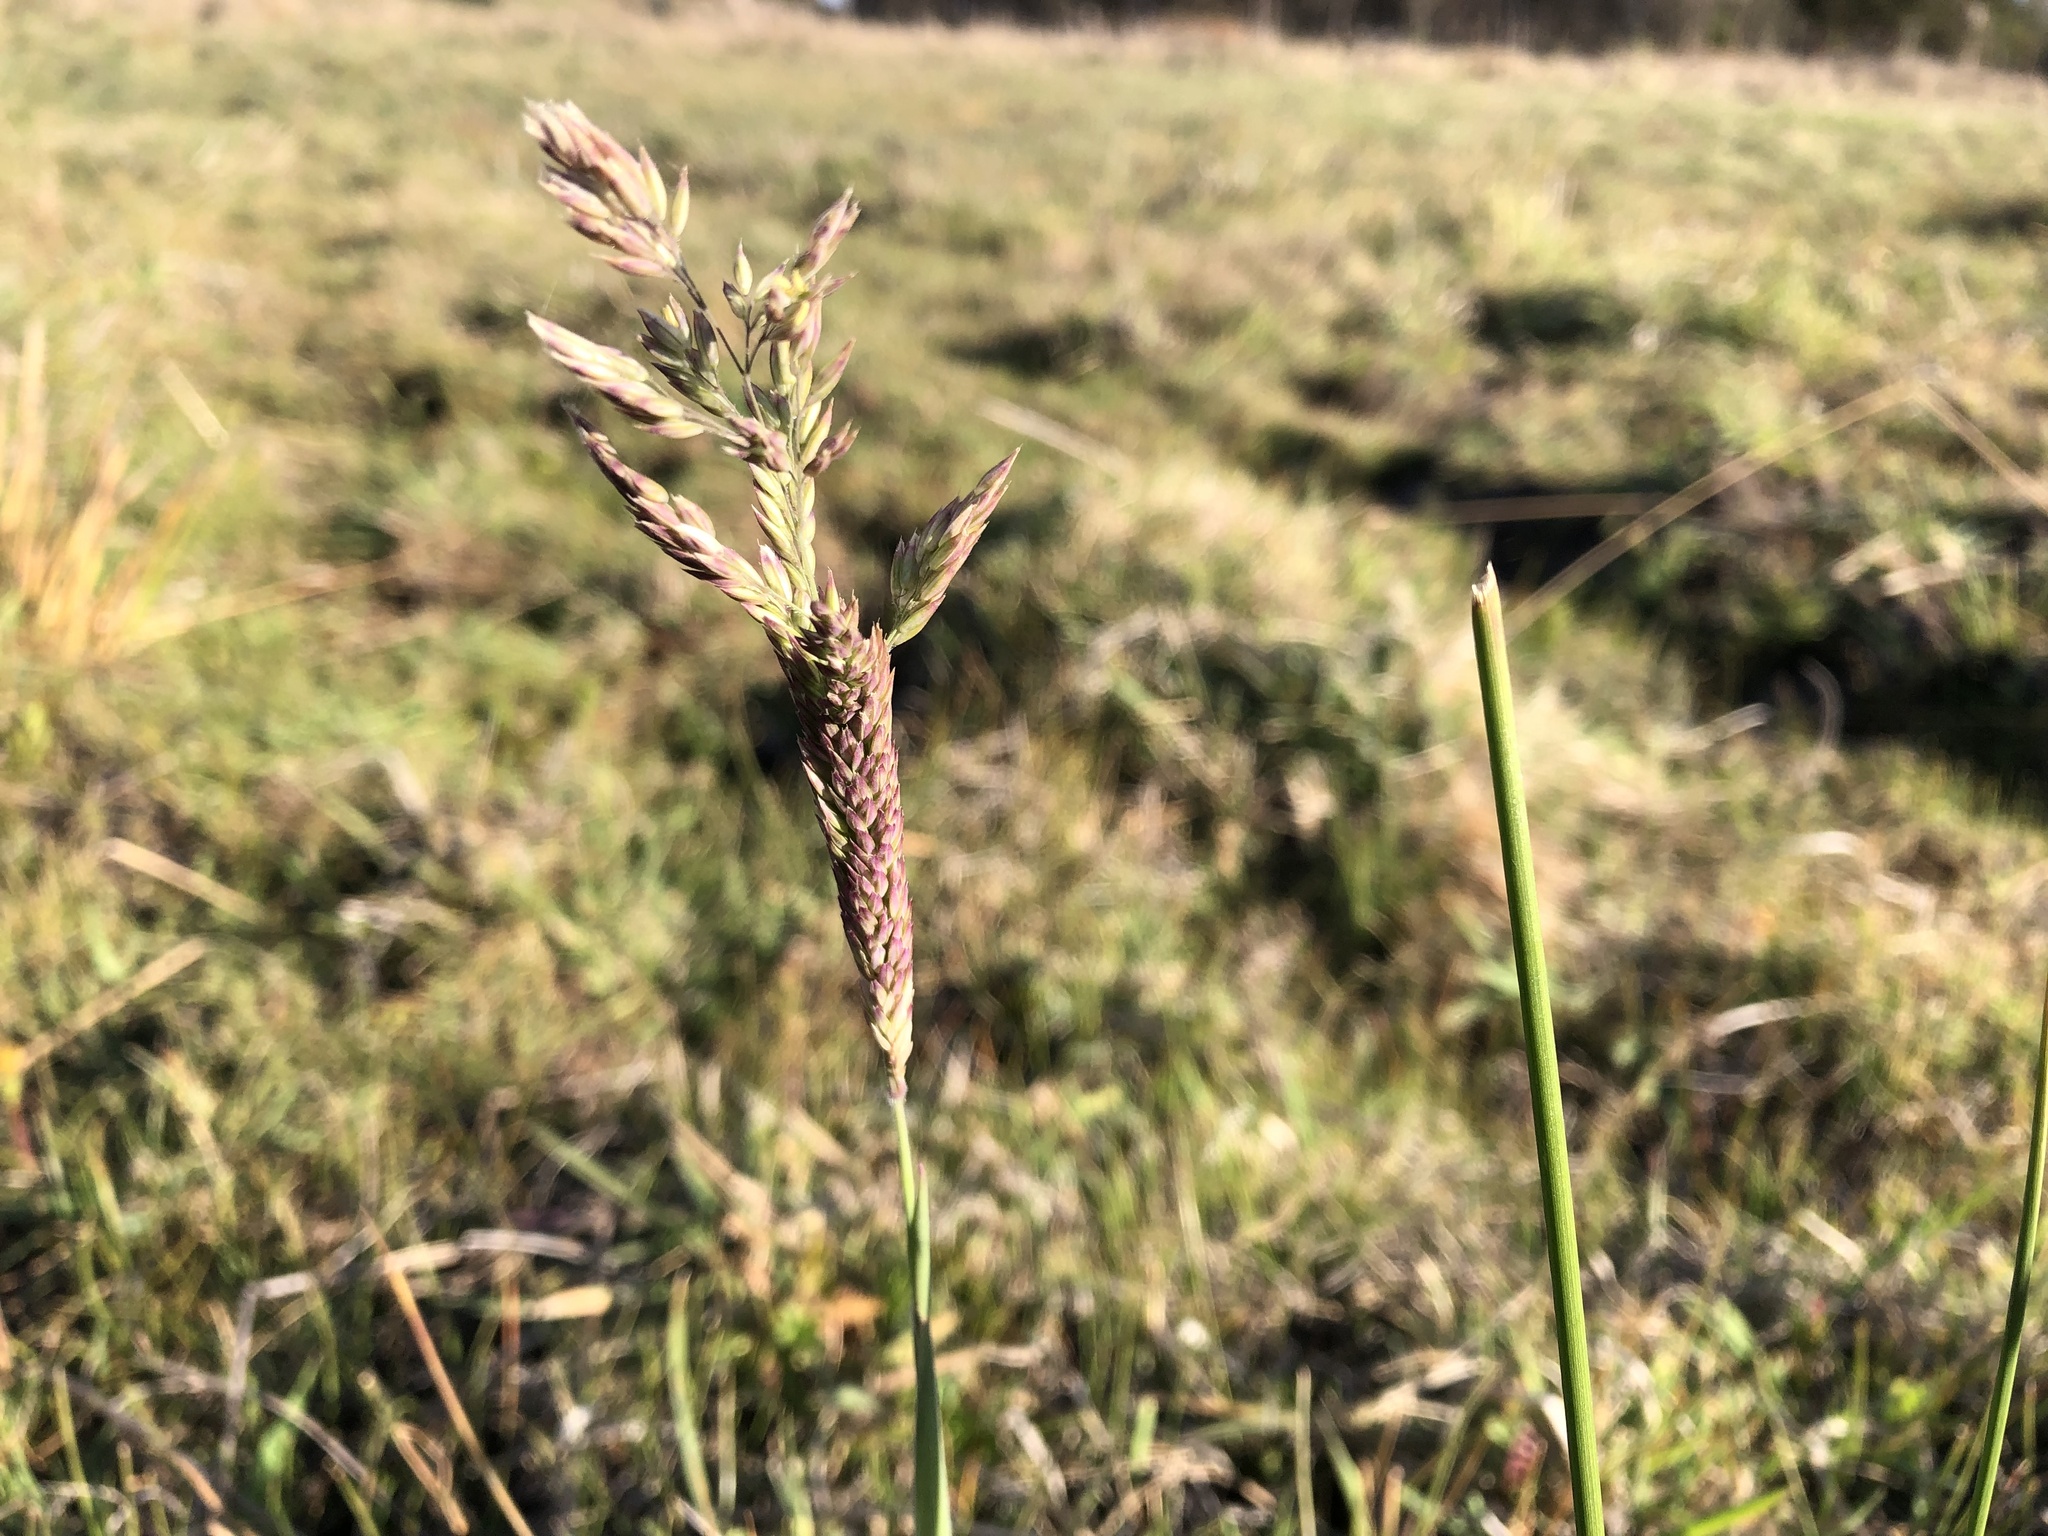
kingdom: Plantae
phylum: Tracheophyta
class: Liliopsida
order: Poales
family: Poaceae
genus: Holcus
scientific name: Holcus lanatus
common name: Yorkshire-fog
